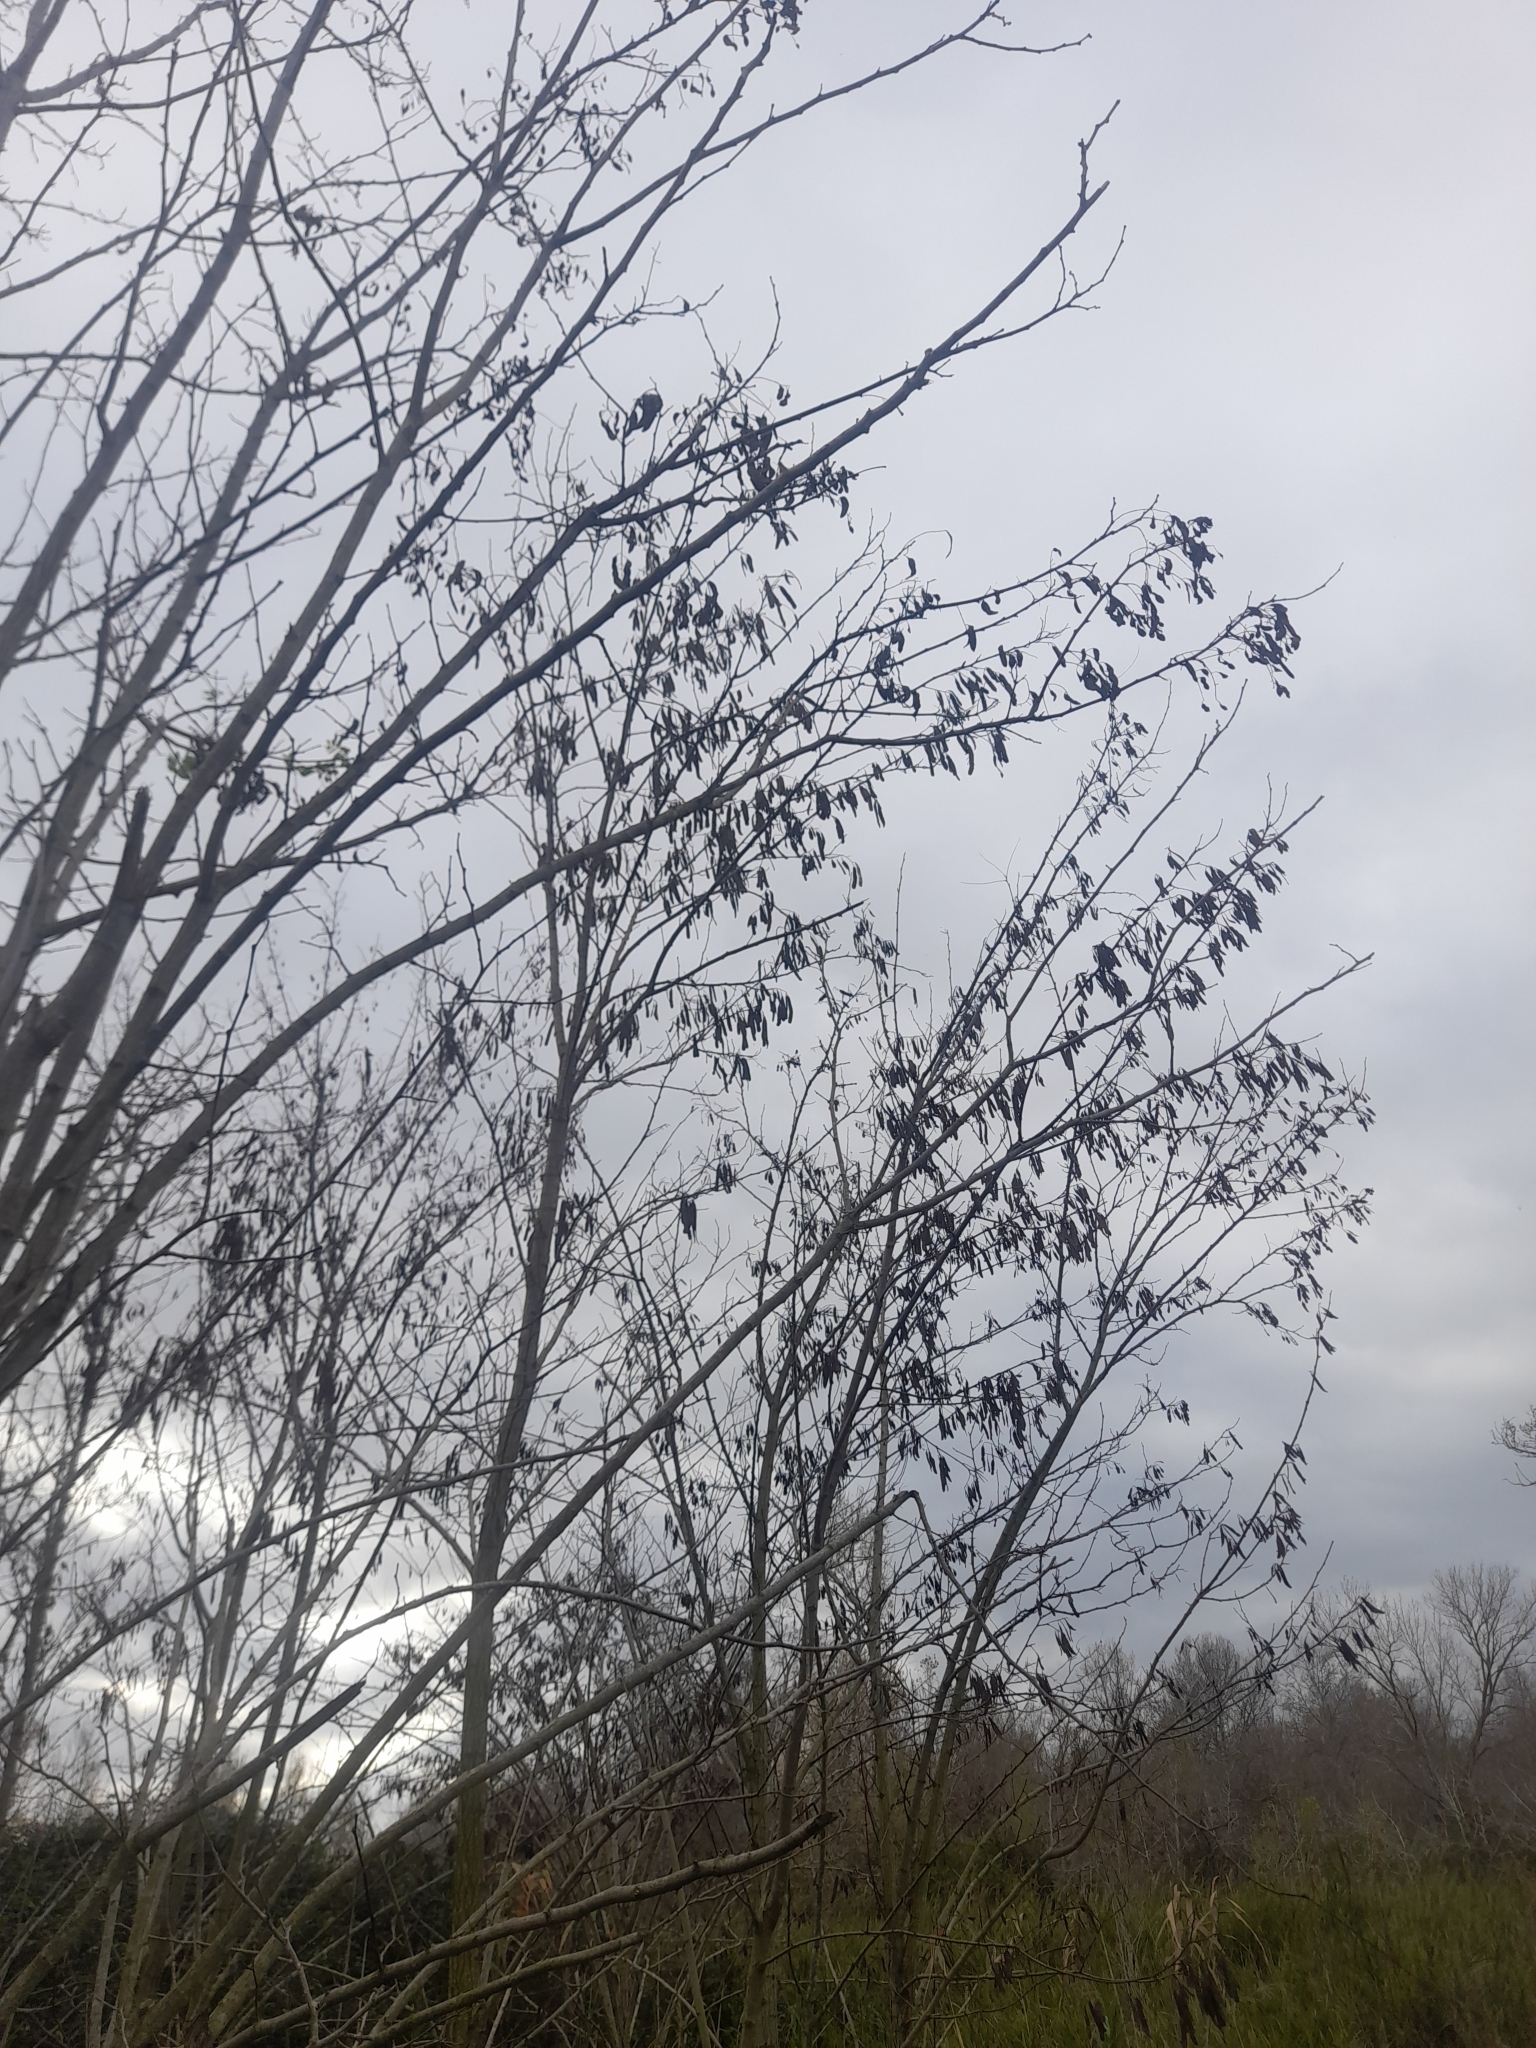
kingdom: Plantae
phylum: Tracheophyta
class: Magnoliopsida
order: Fabales
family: Fabaceae
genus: Robinia
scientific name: Robinia pseudoacacia
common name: Black locust
